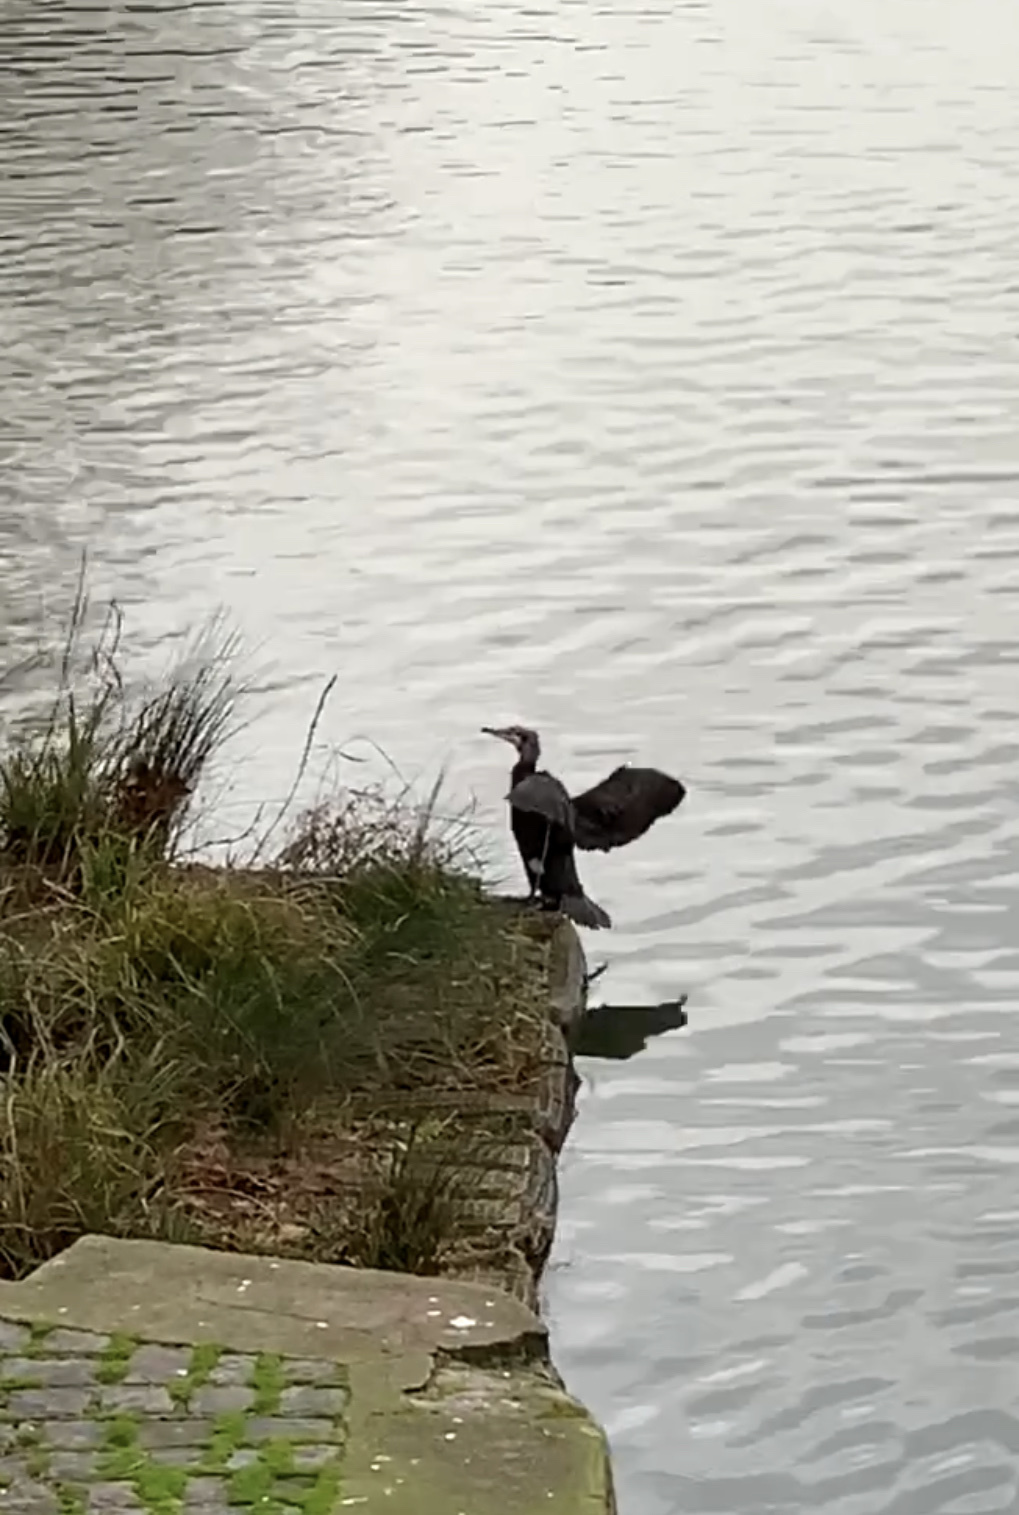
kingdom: Animalia
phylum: Chordata
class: Aves
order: Suliformes
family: Phalacrocoracidae
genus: Phalacrocorax
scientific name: Phalacrocorax carbo
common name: Great cormorant
